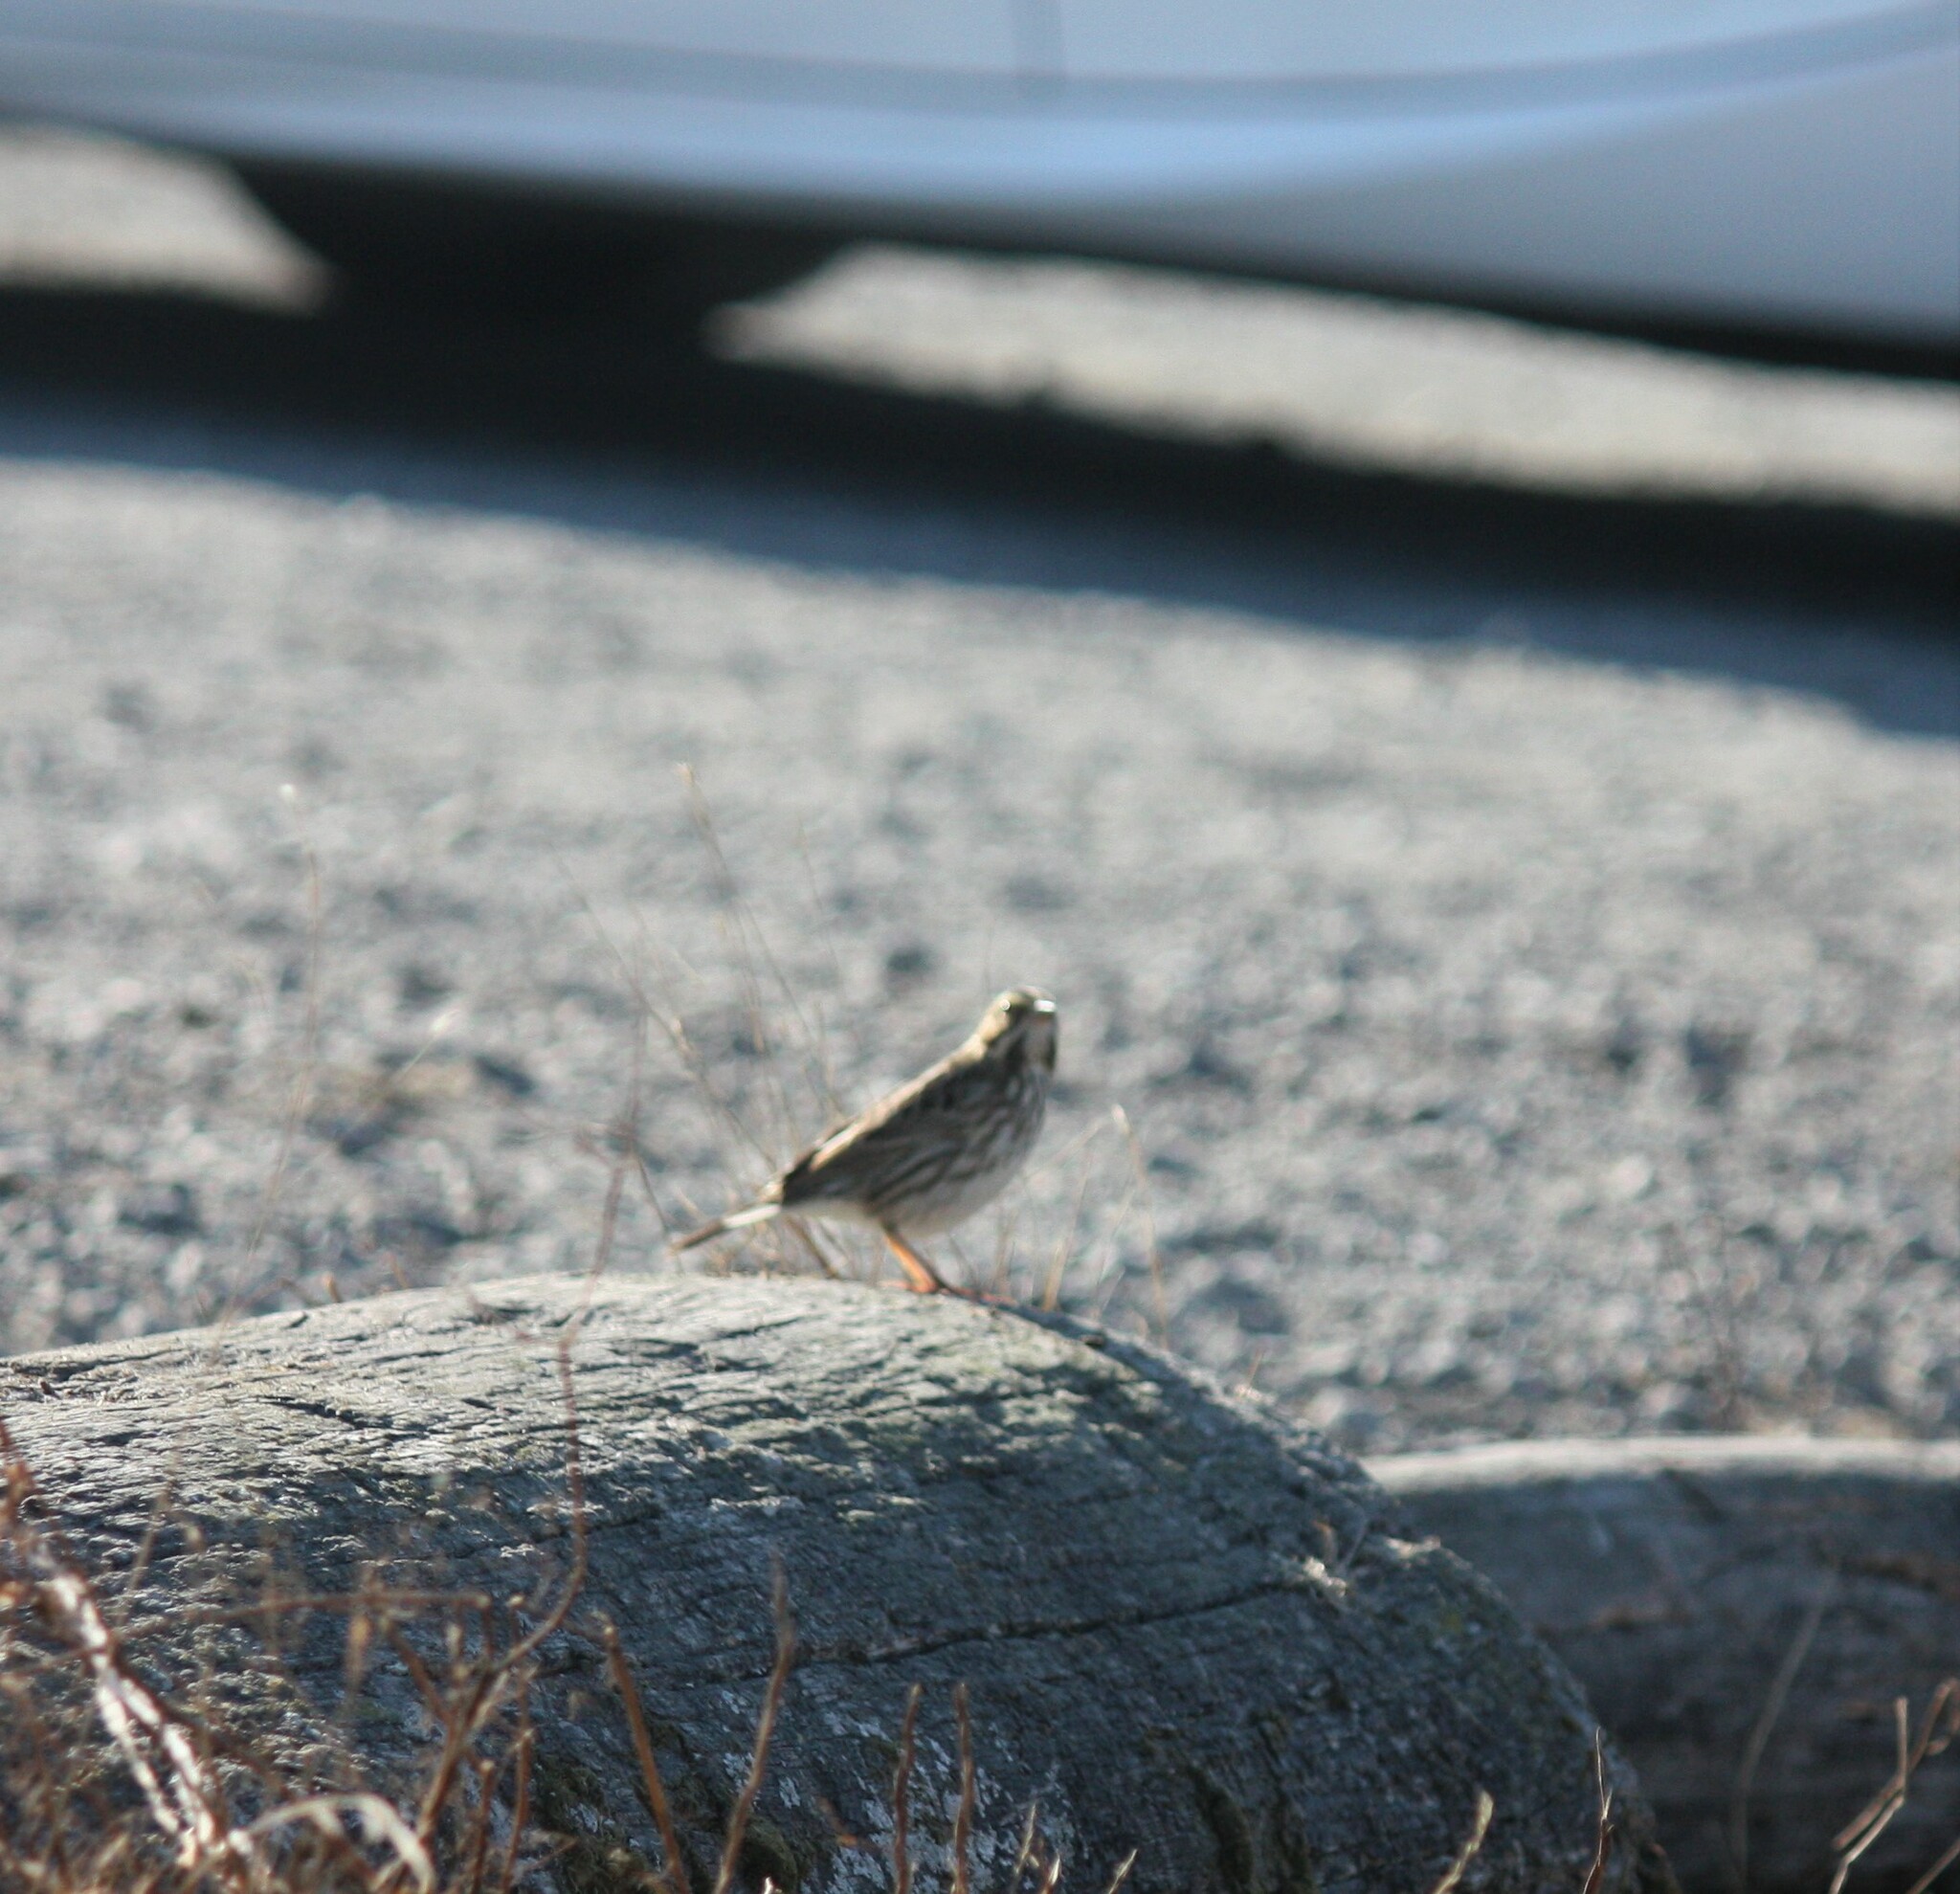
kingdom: Animalia
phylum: Chordata
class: Aves
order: Passeriformes
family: Passerellidae
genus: Passerculus
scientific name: Passerculus sandwichensis
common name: Savannah sparrow
